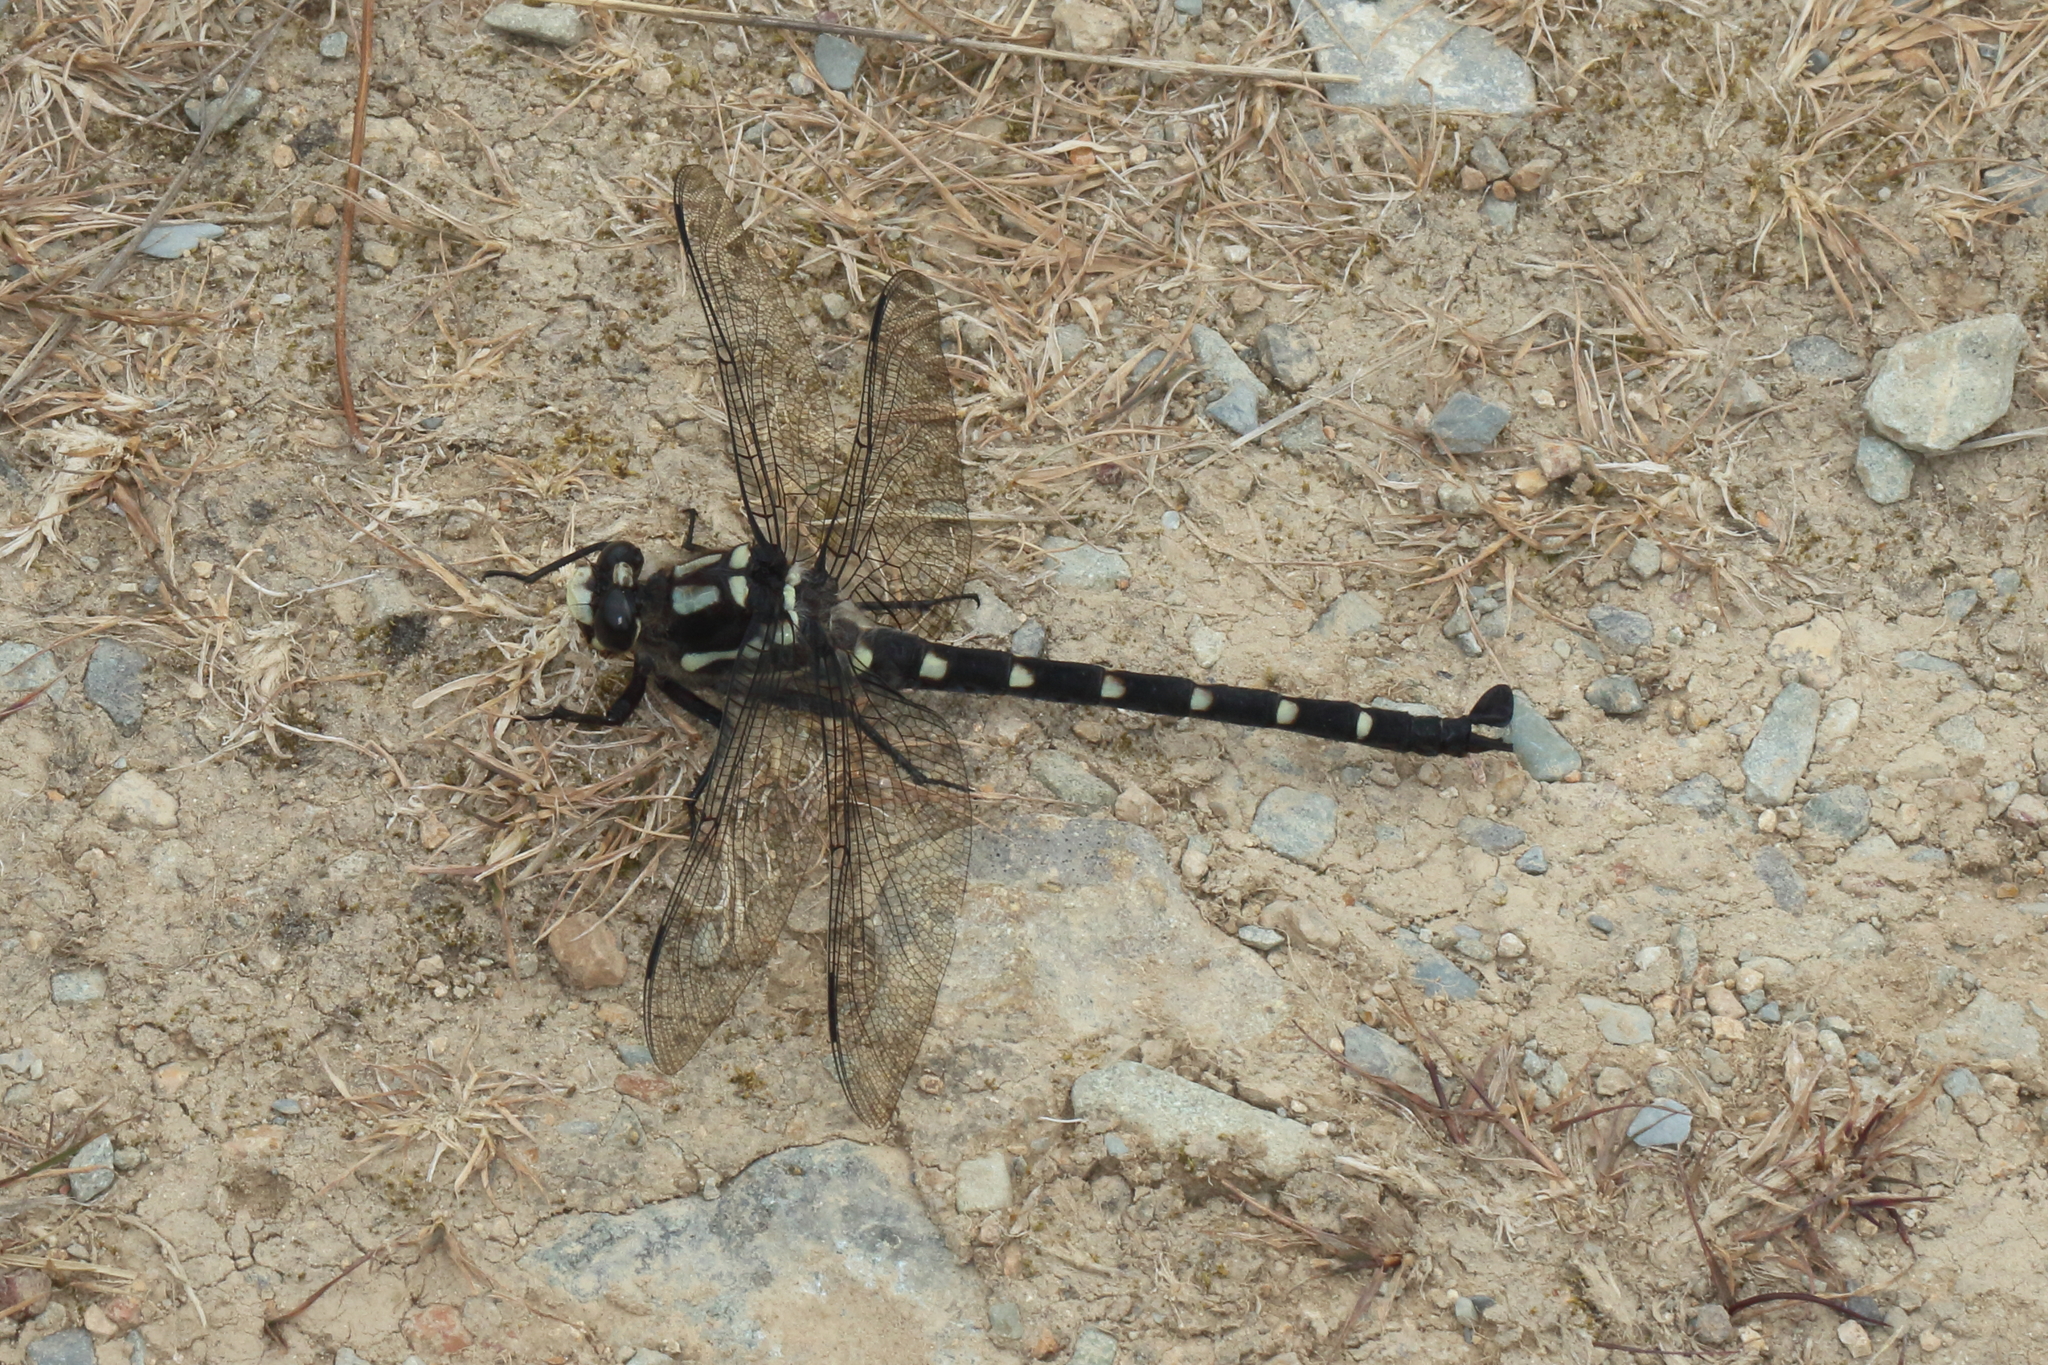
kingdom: Animalia
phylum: Arthropoda
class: Insecta
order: Odonata
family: Petaluridae
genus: Uropetala
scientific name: Uropetala chiltoni
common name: Mountain giant dragonfly
